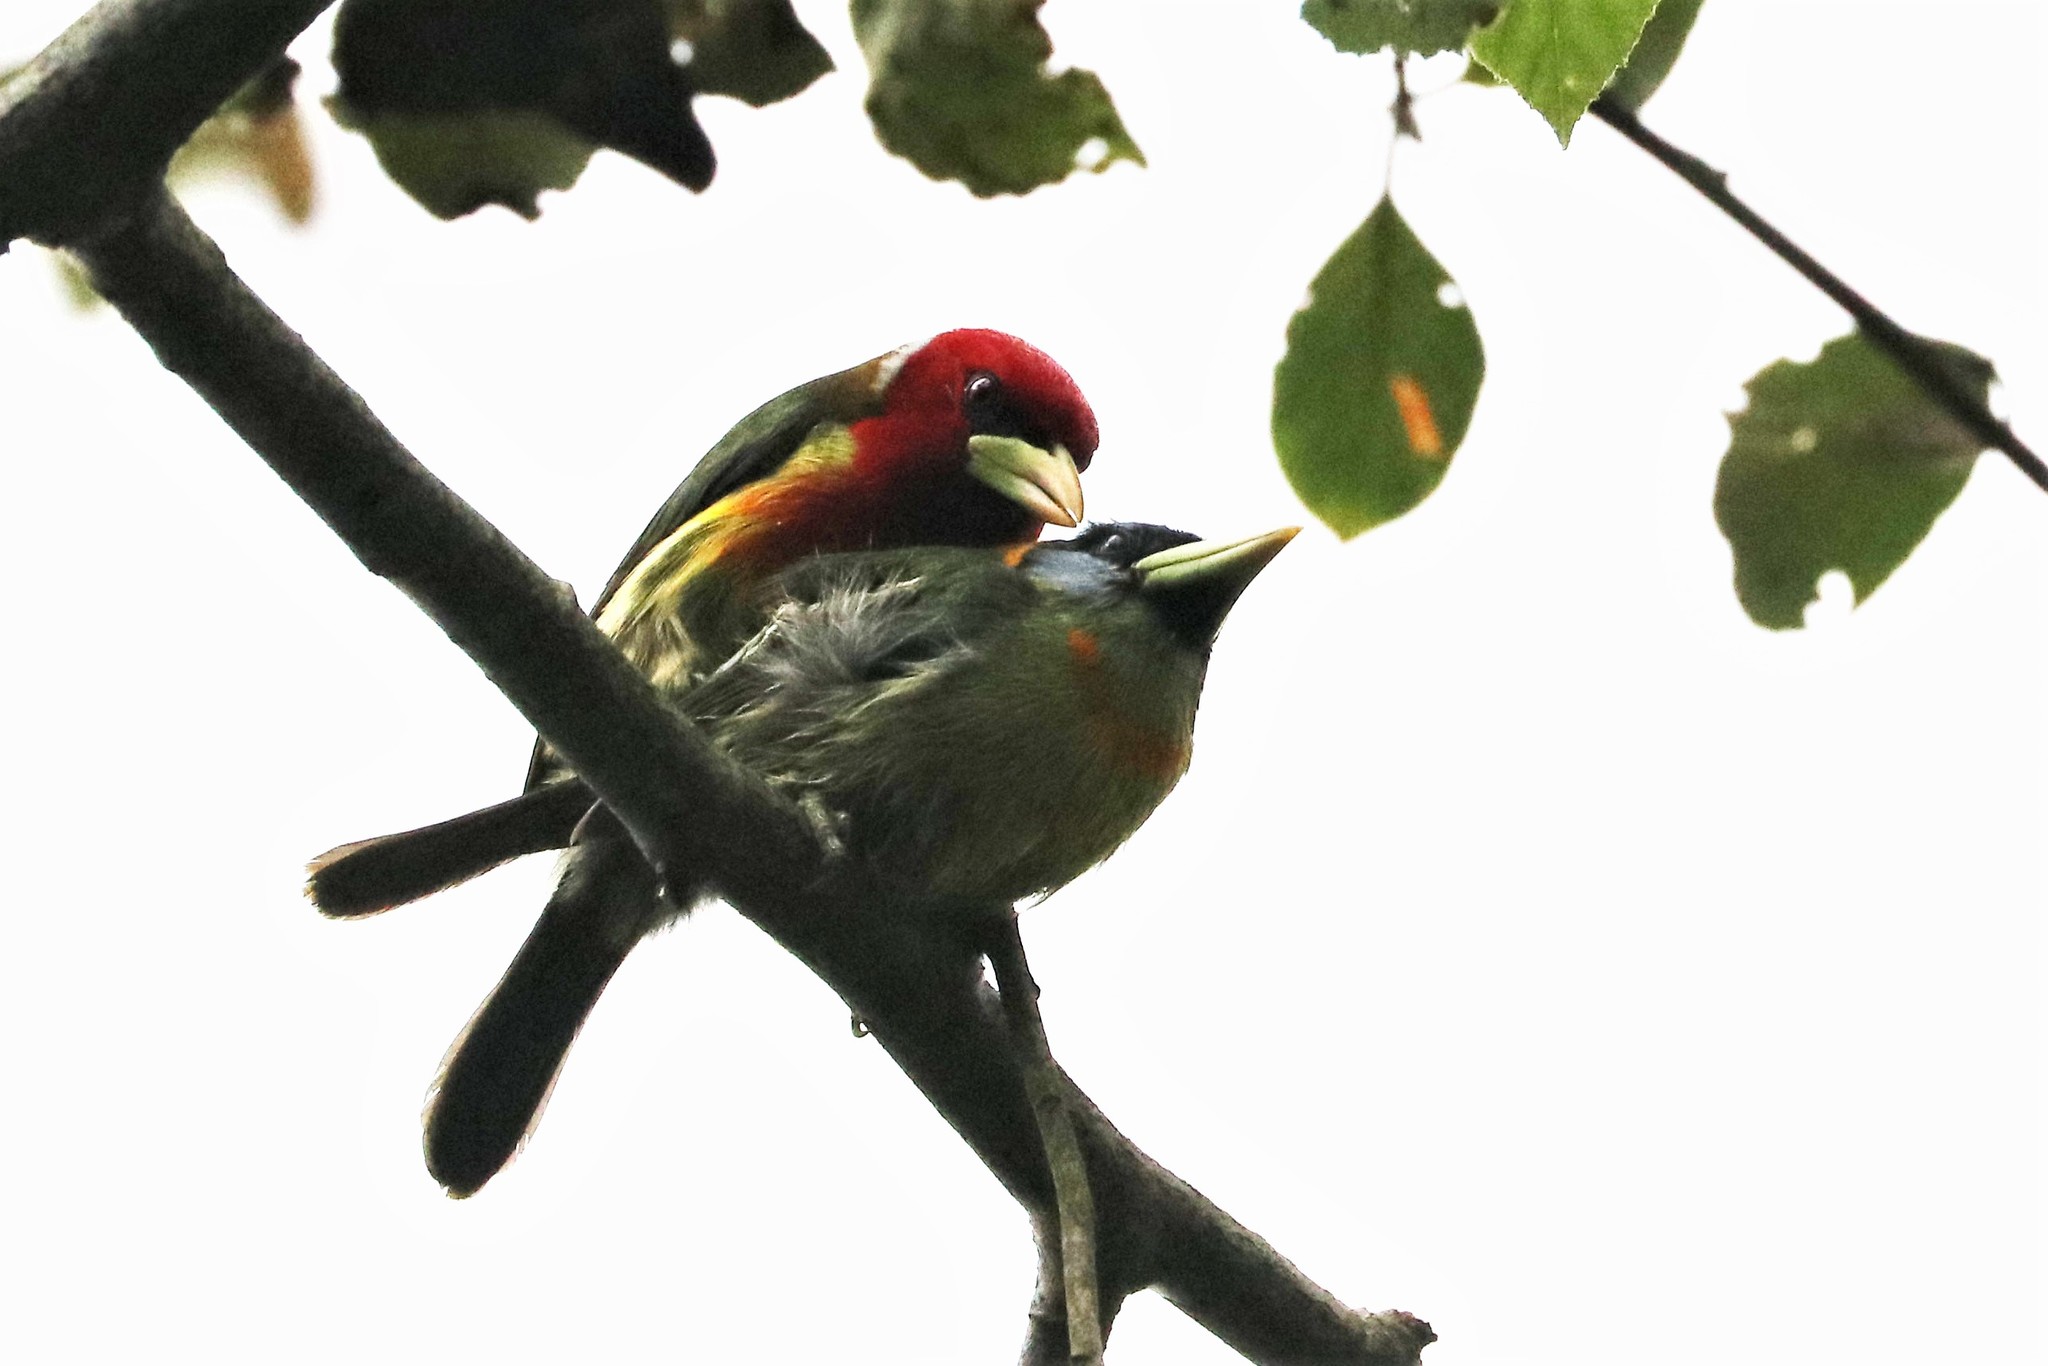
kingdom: Animalia
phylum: Chordata
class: Aves
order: Piciformes
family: Capitonidae
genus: Eubucco
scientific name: Eubucco bourcierii
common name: Red-headed barbet
